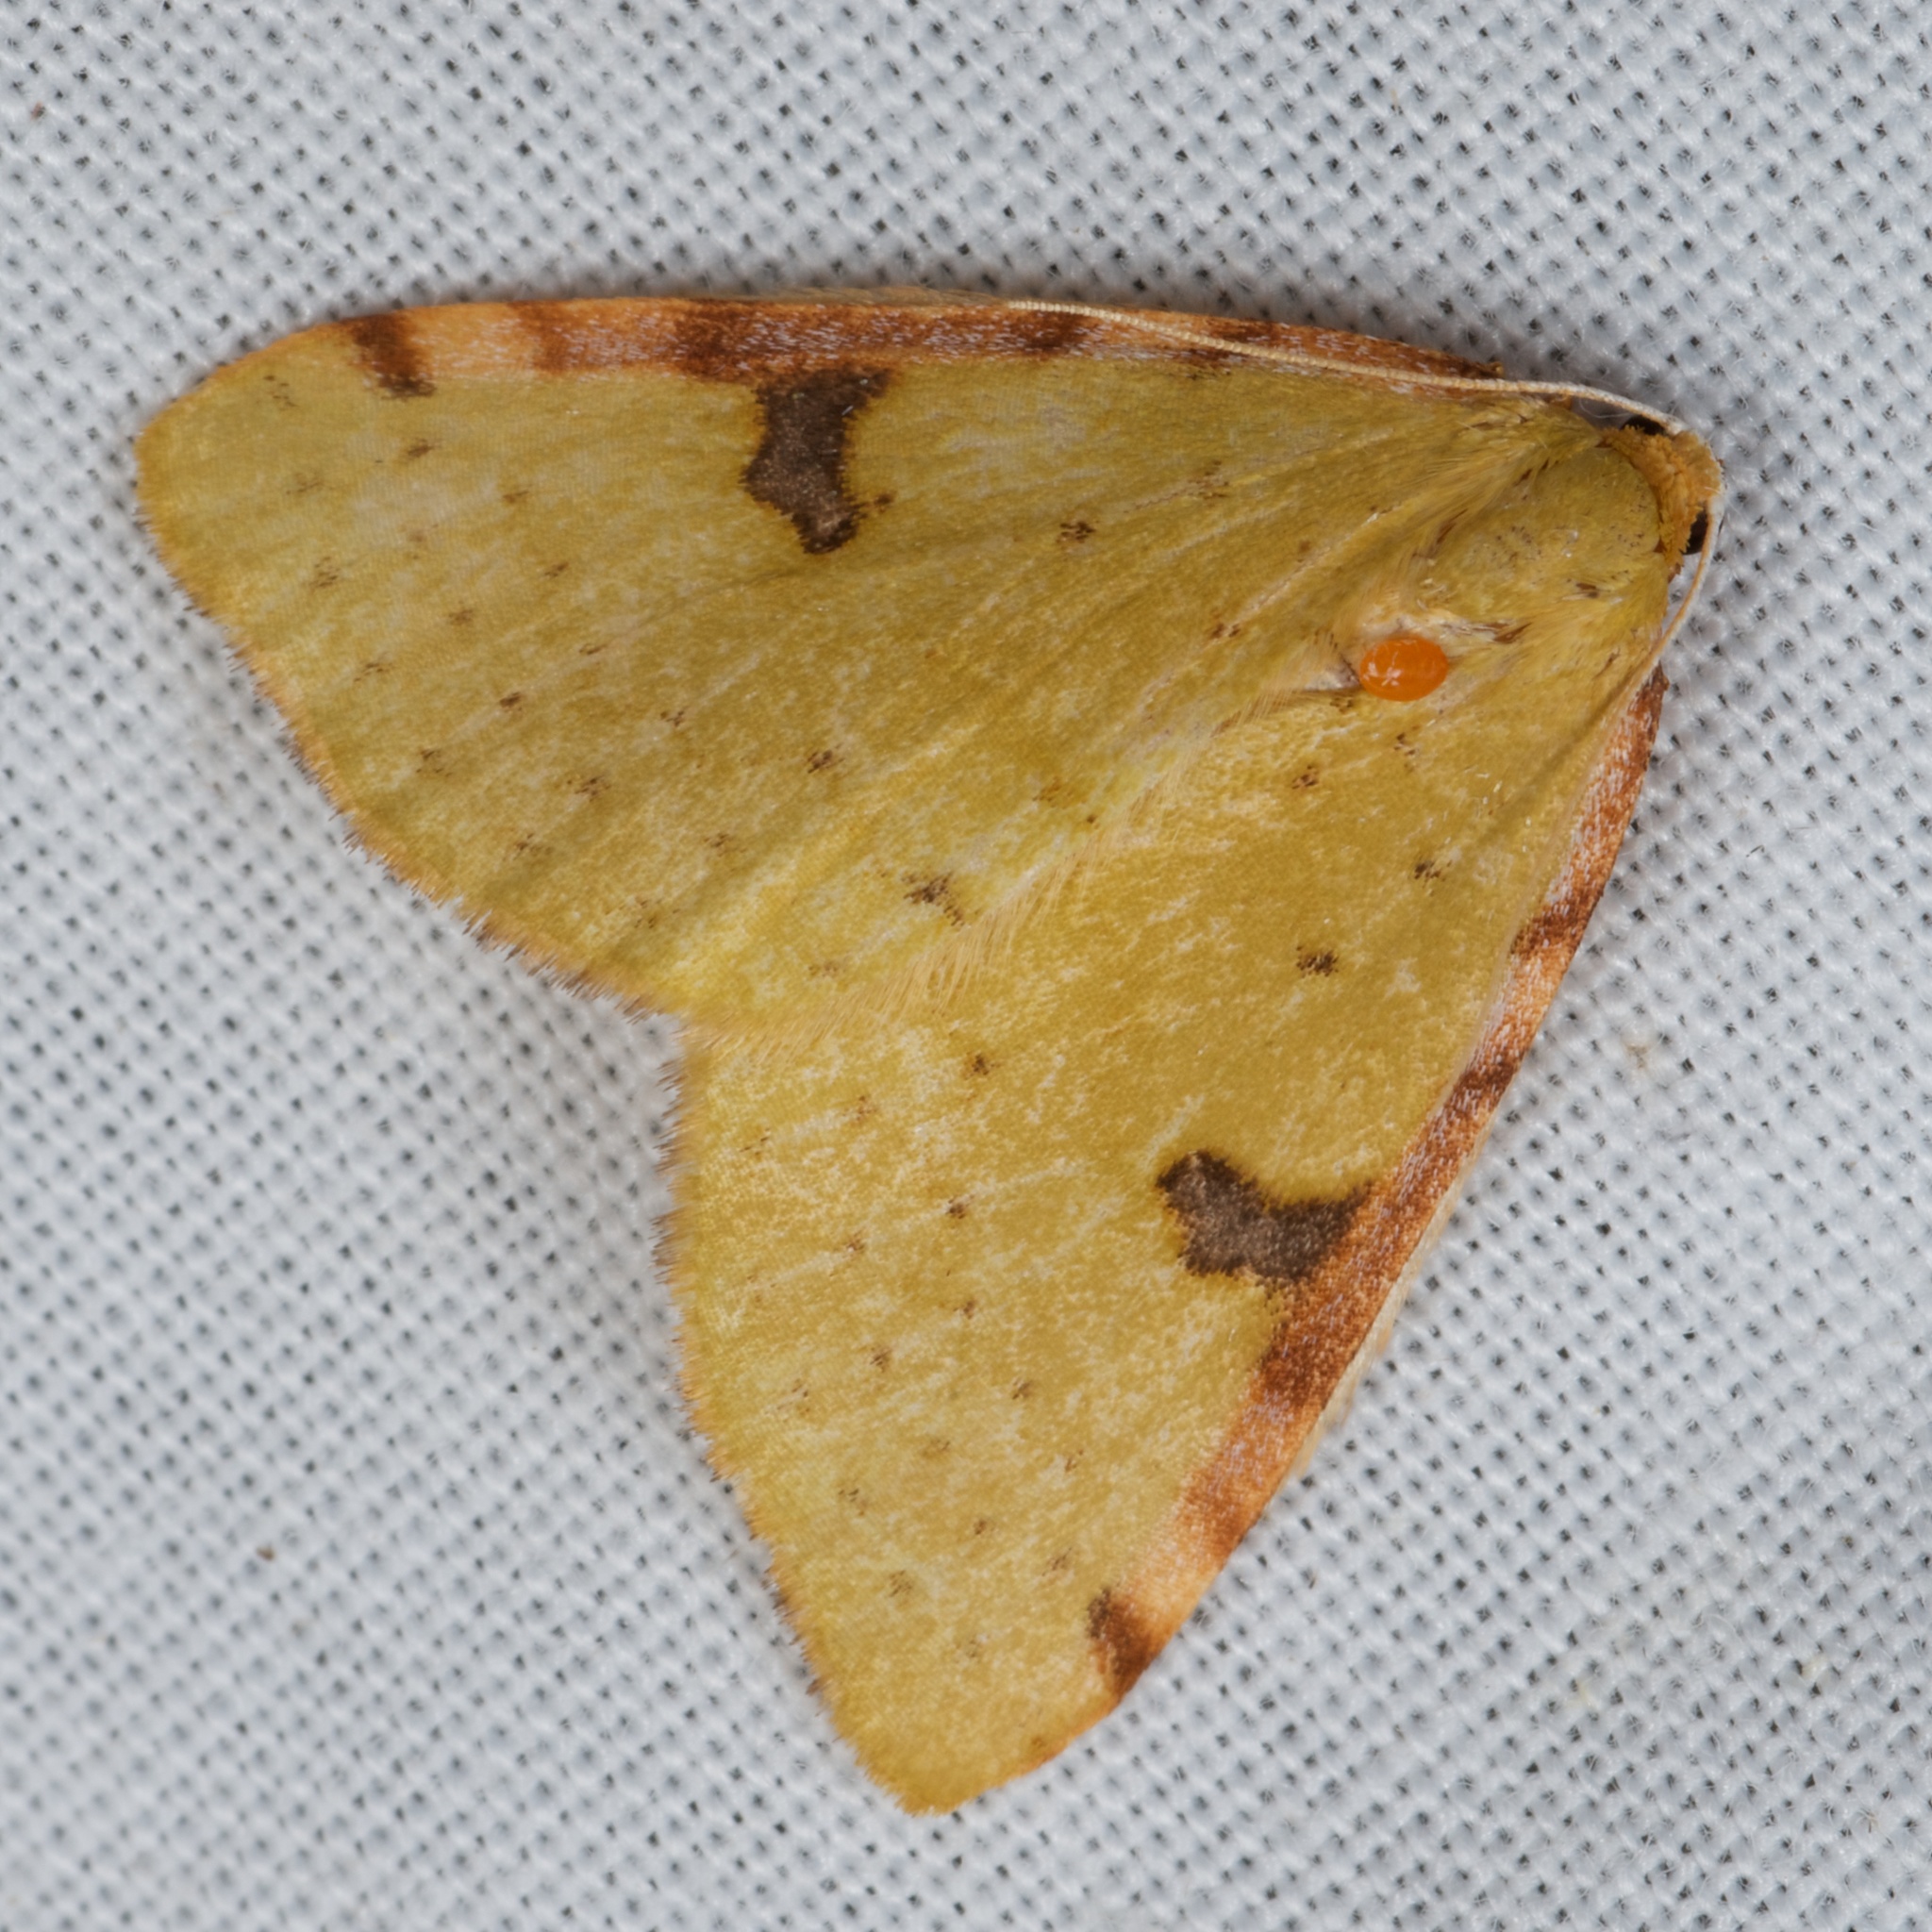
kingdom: Animalia
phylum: Arthropoda
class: Insecta
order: Lepidoptera
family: Geometridae
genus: Epiphryne
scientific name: Epiphryne xanthaspis
